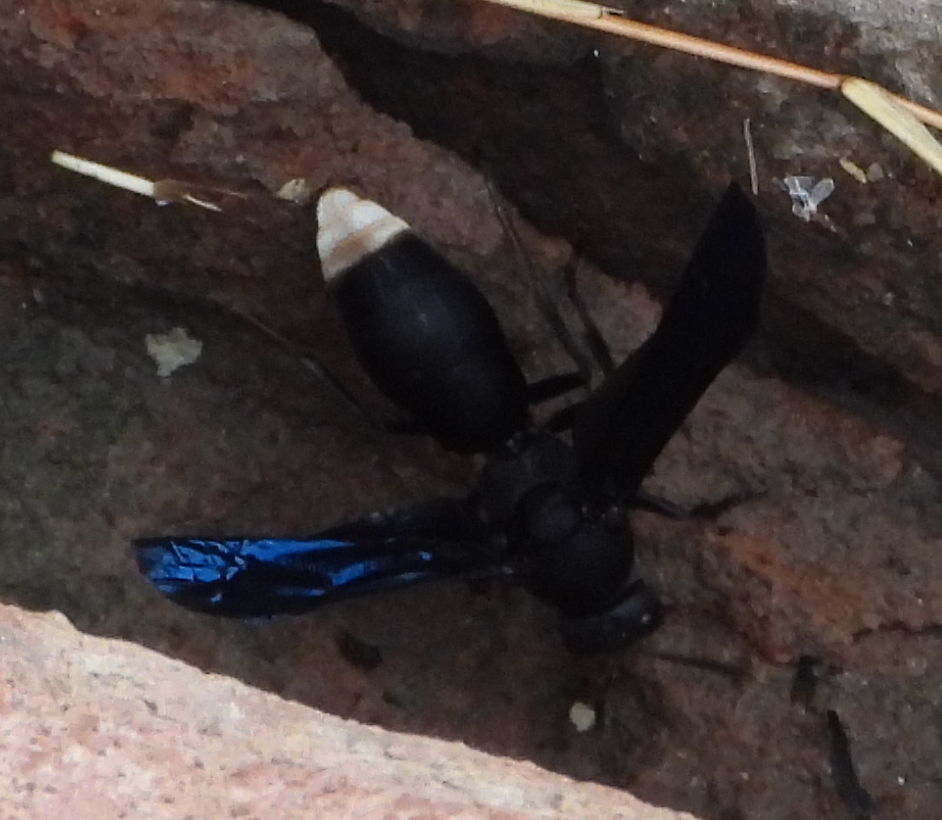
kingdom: Animalia
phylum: Arthropoda
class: Insecta
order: Hymenoptera
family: Eumenidae
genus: Anterhynchium
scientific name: Anterhynchium synagroides
